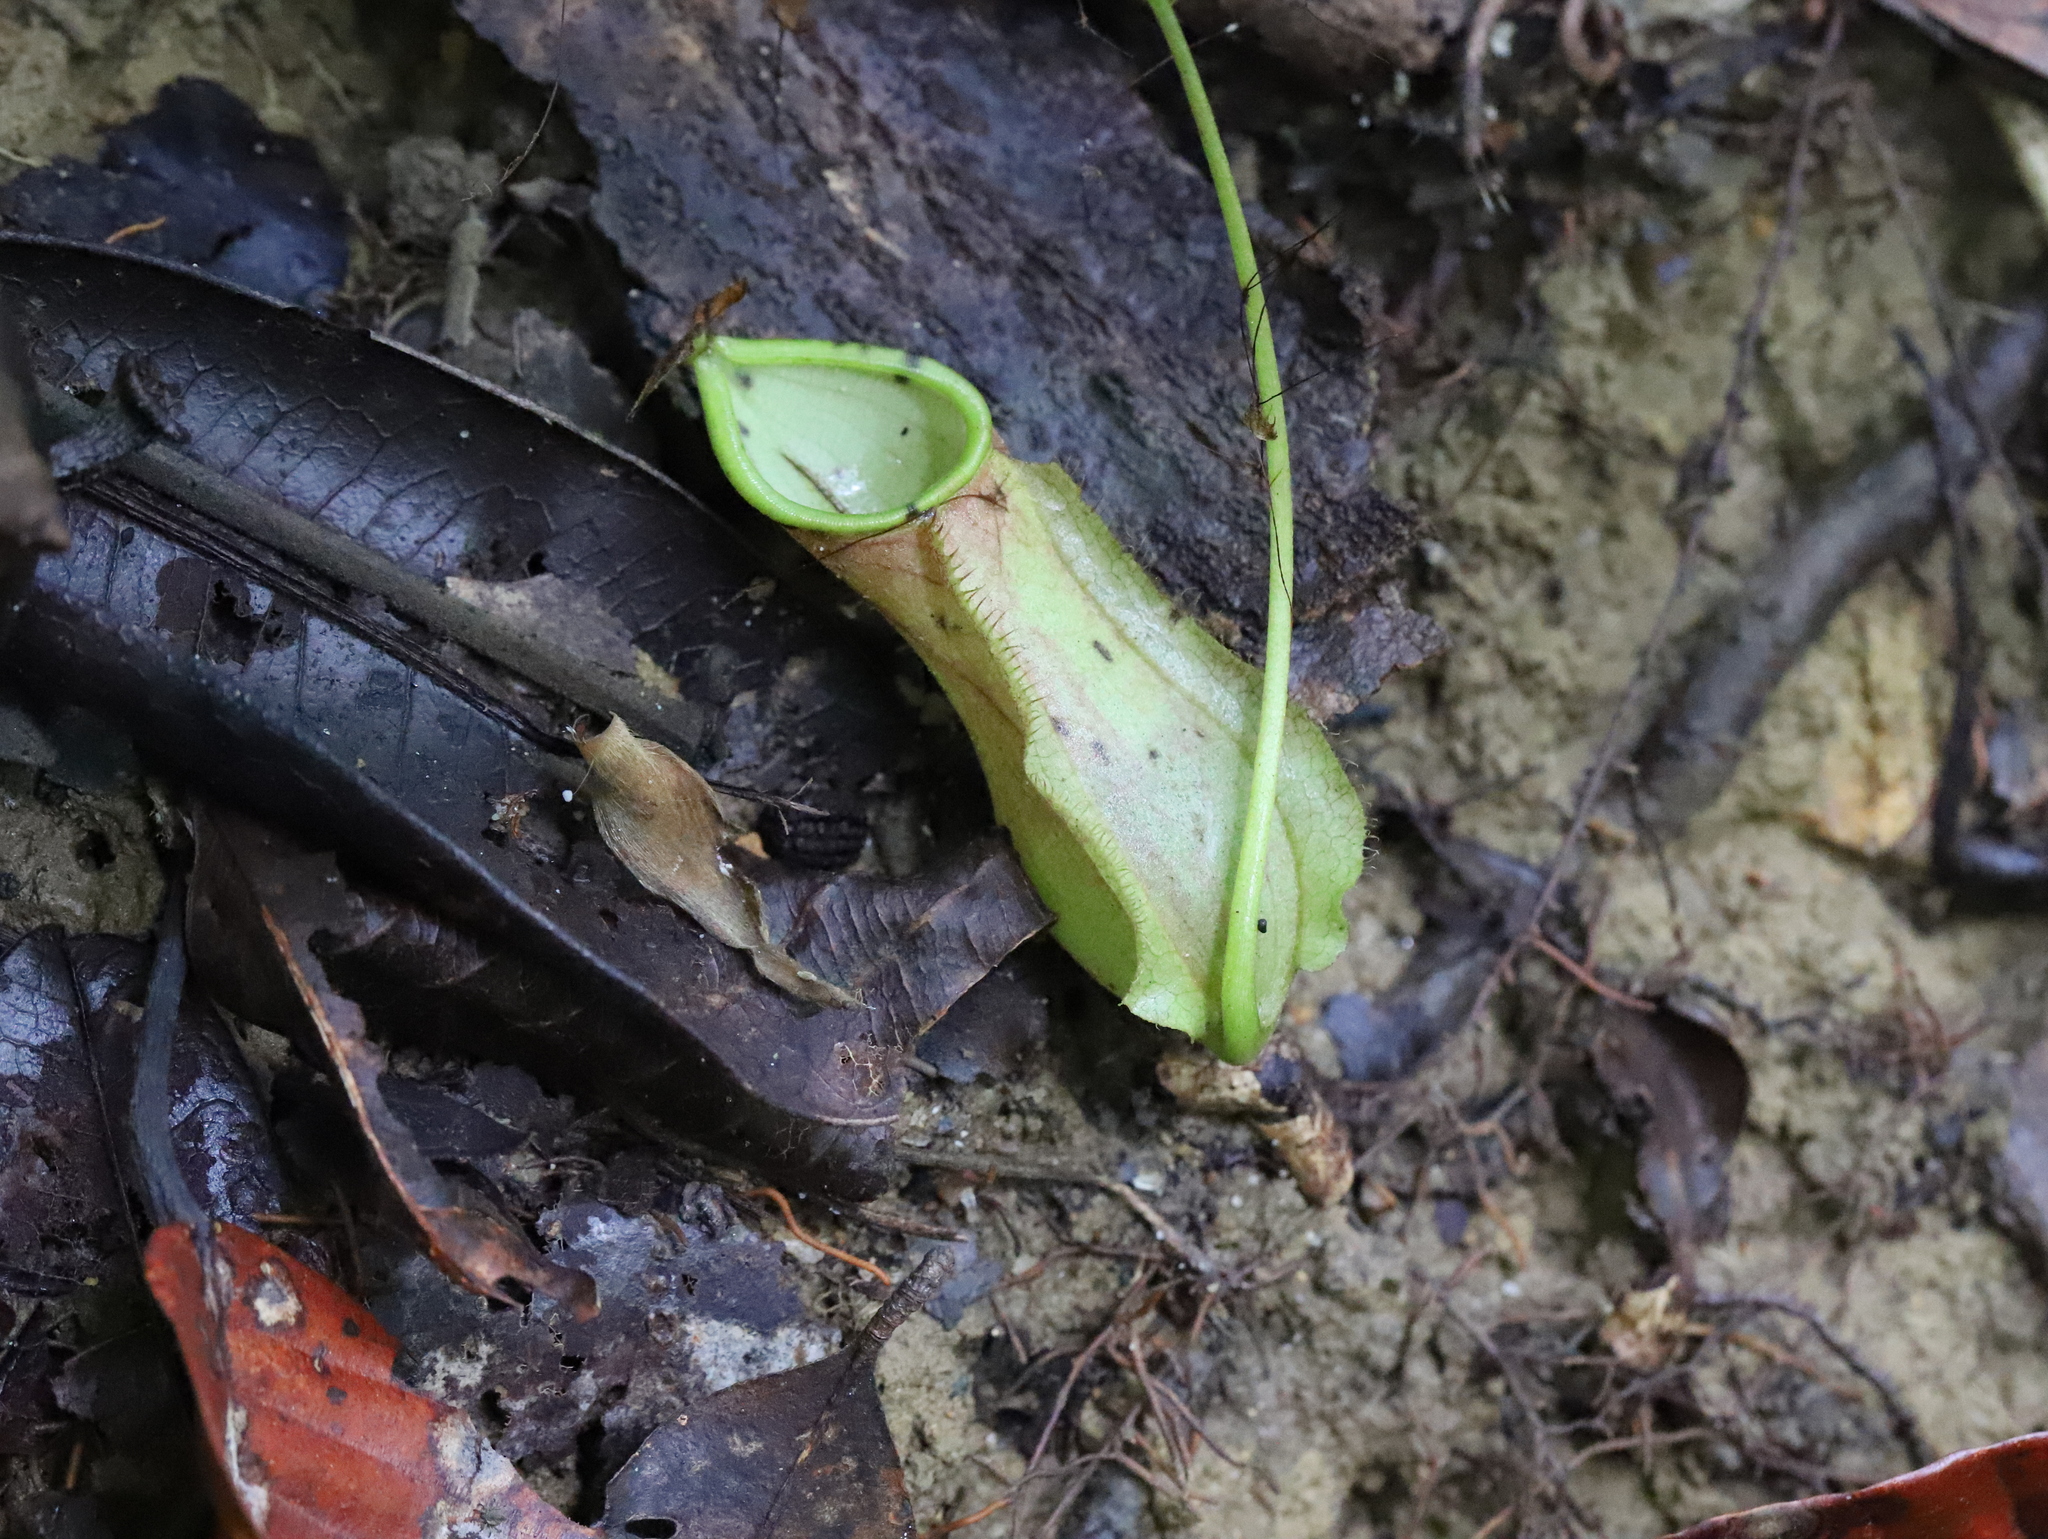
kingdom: Plantae
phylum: Tracheophyta
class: Magnoliopsida
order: Caryophyllales
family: Nepenthaceae
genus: Nepenthes
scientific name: Nepenthes distillatoria
